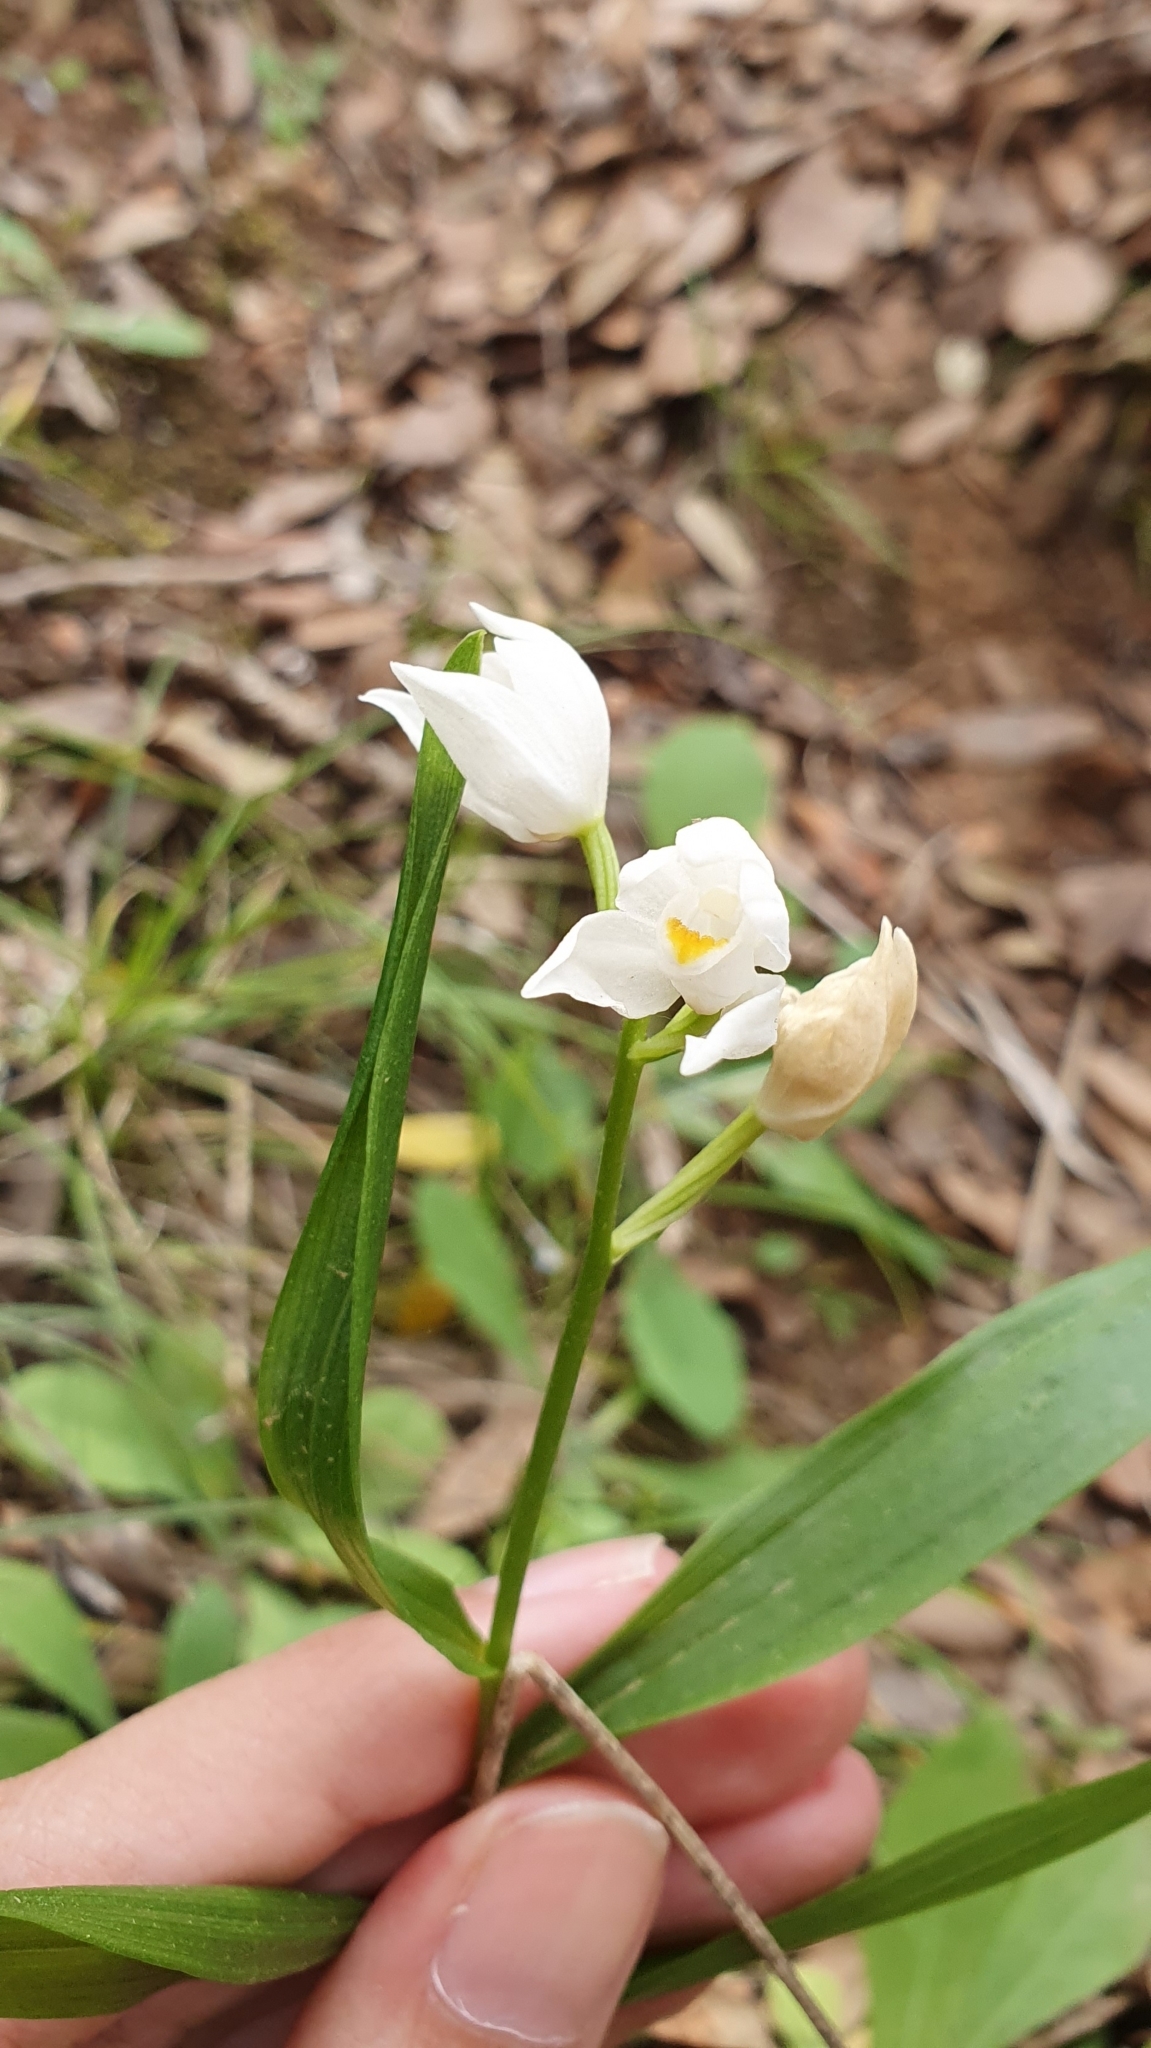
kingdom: Plantae
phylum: Tracheophyta
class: Liliopsida
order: Asparagales
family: Orchidaceae
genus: Cephalanthera
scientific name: Cephalanthera longifolia
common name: Narrow-leaved helleborine
